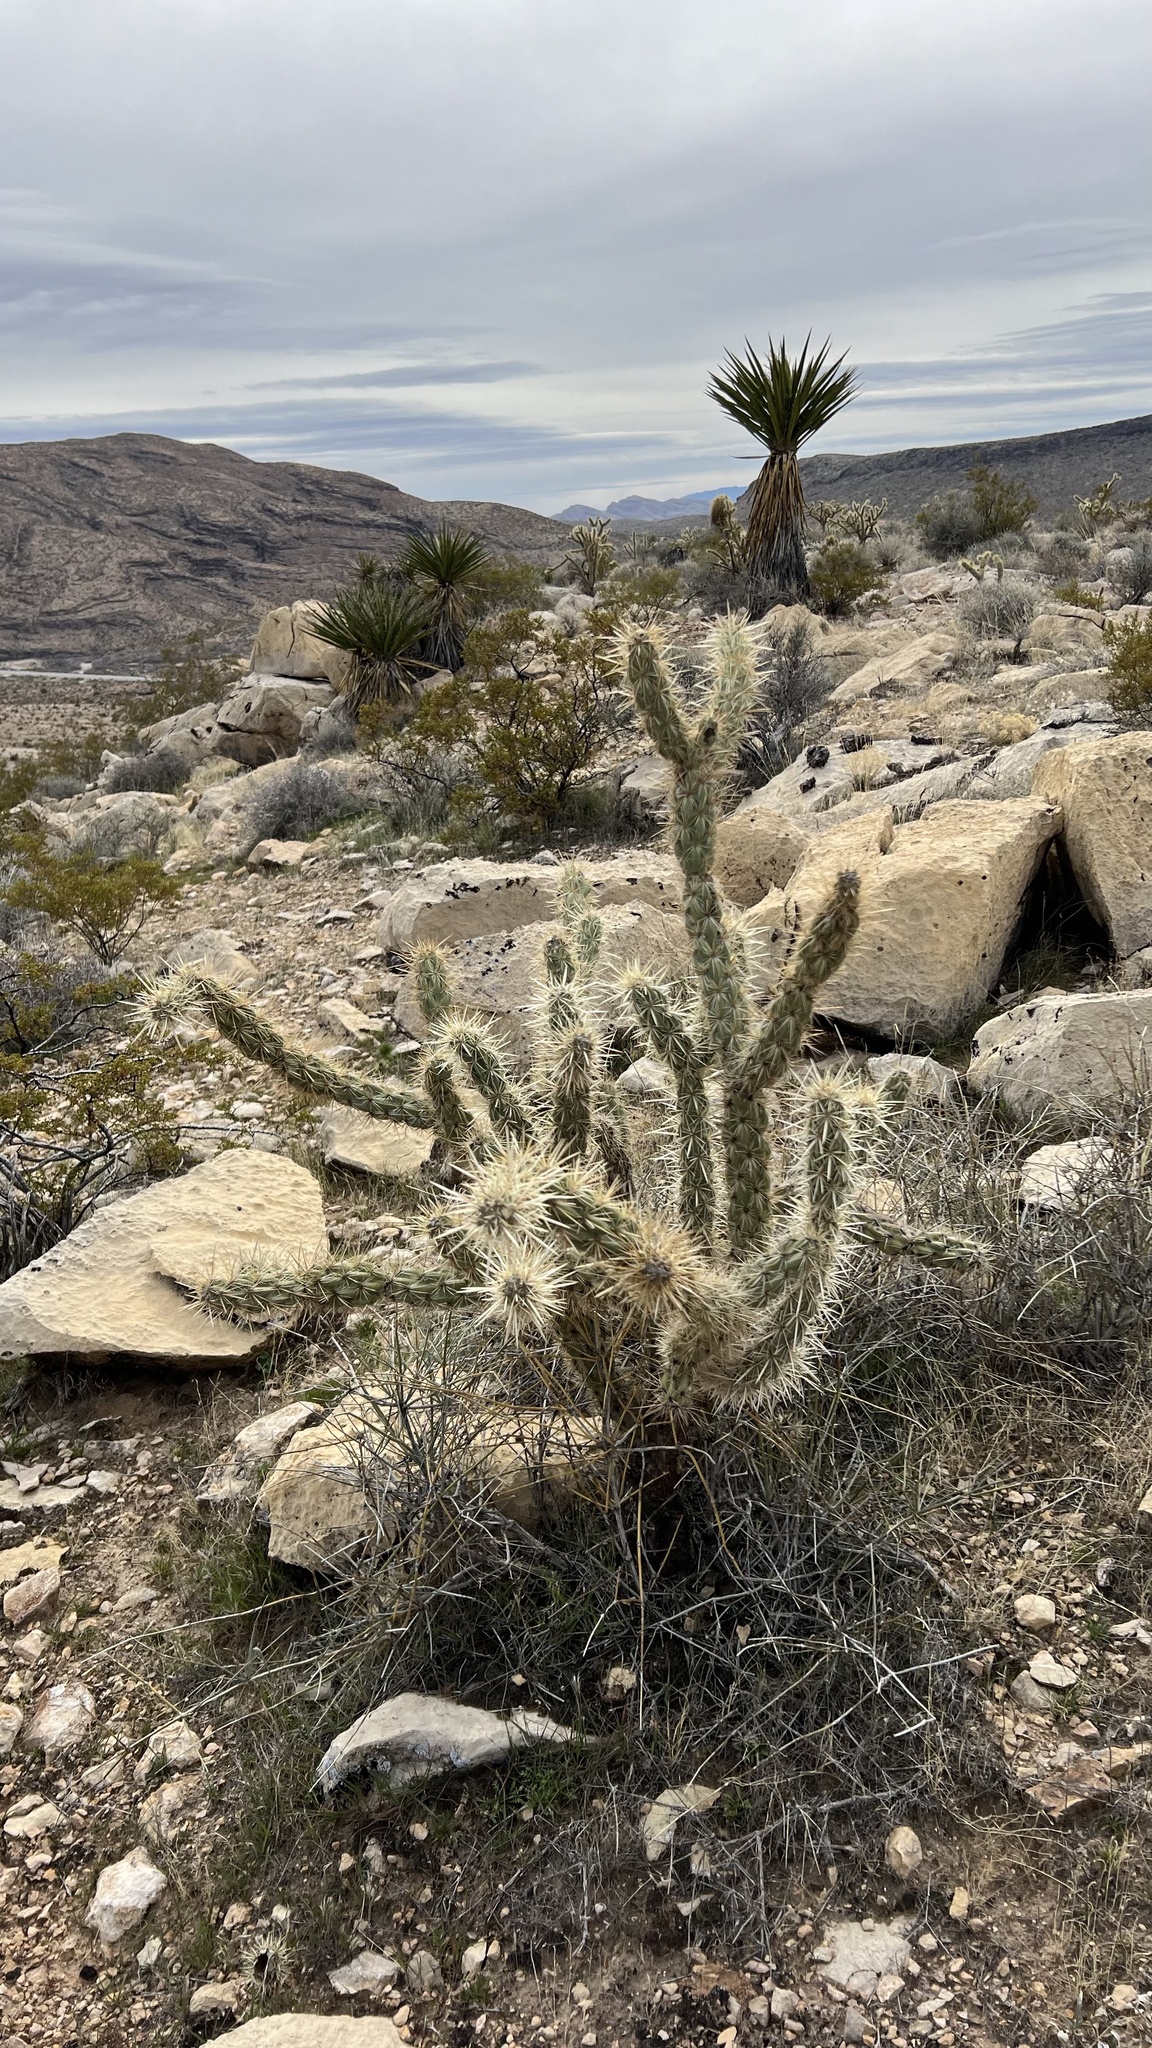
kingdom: Plantae
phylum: Tracheophyta
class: Magnoliopsida
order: Caryophyllales
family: Cactaceae
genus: Cylindropuntia
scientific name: Cylindropuntia acanthocarpa
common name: Buckhorn cholla
